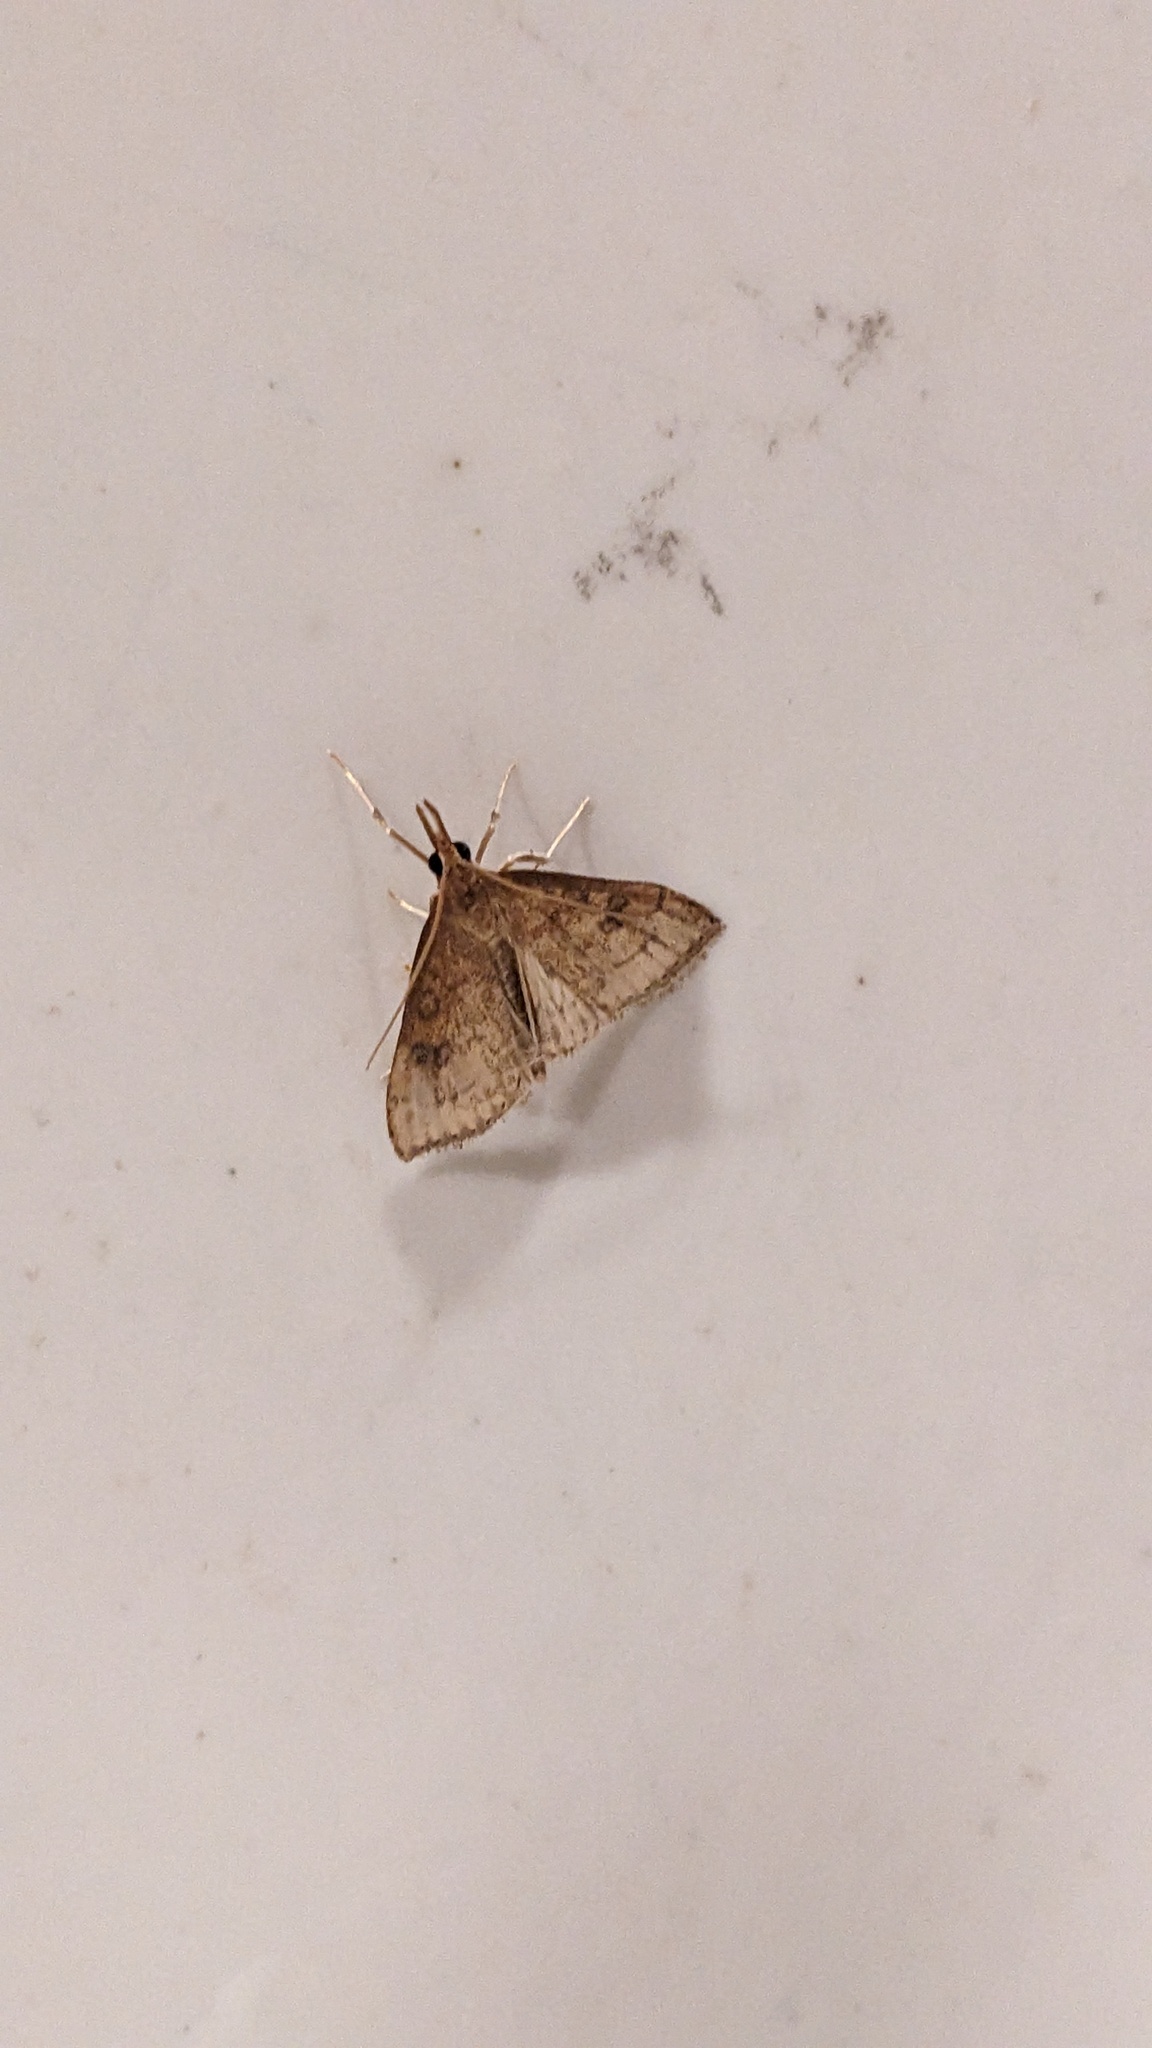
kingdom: Animalia
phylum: Arthropoda
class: Insecta
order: Lepidoptera
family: Crambidae
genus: Udea
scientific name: Udea rubigalis
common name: Celery leaftier moth
